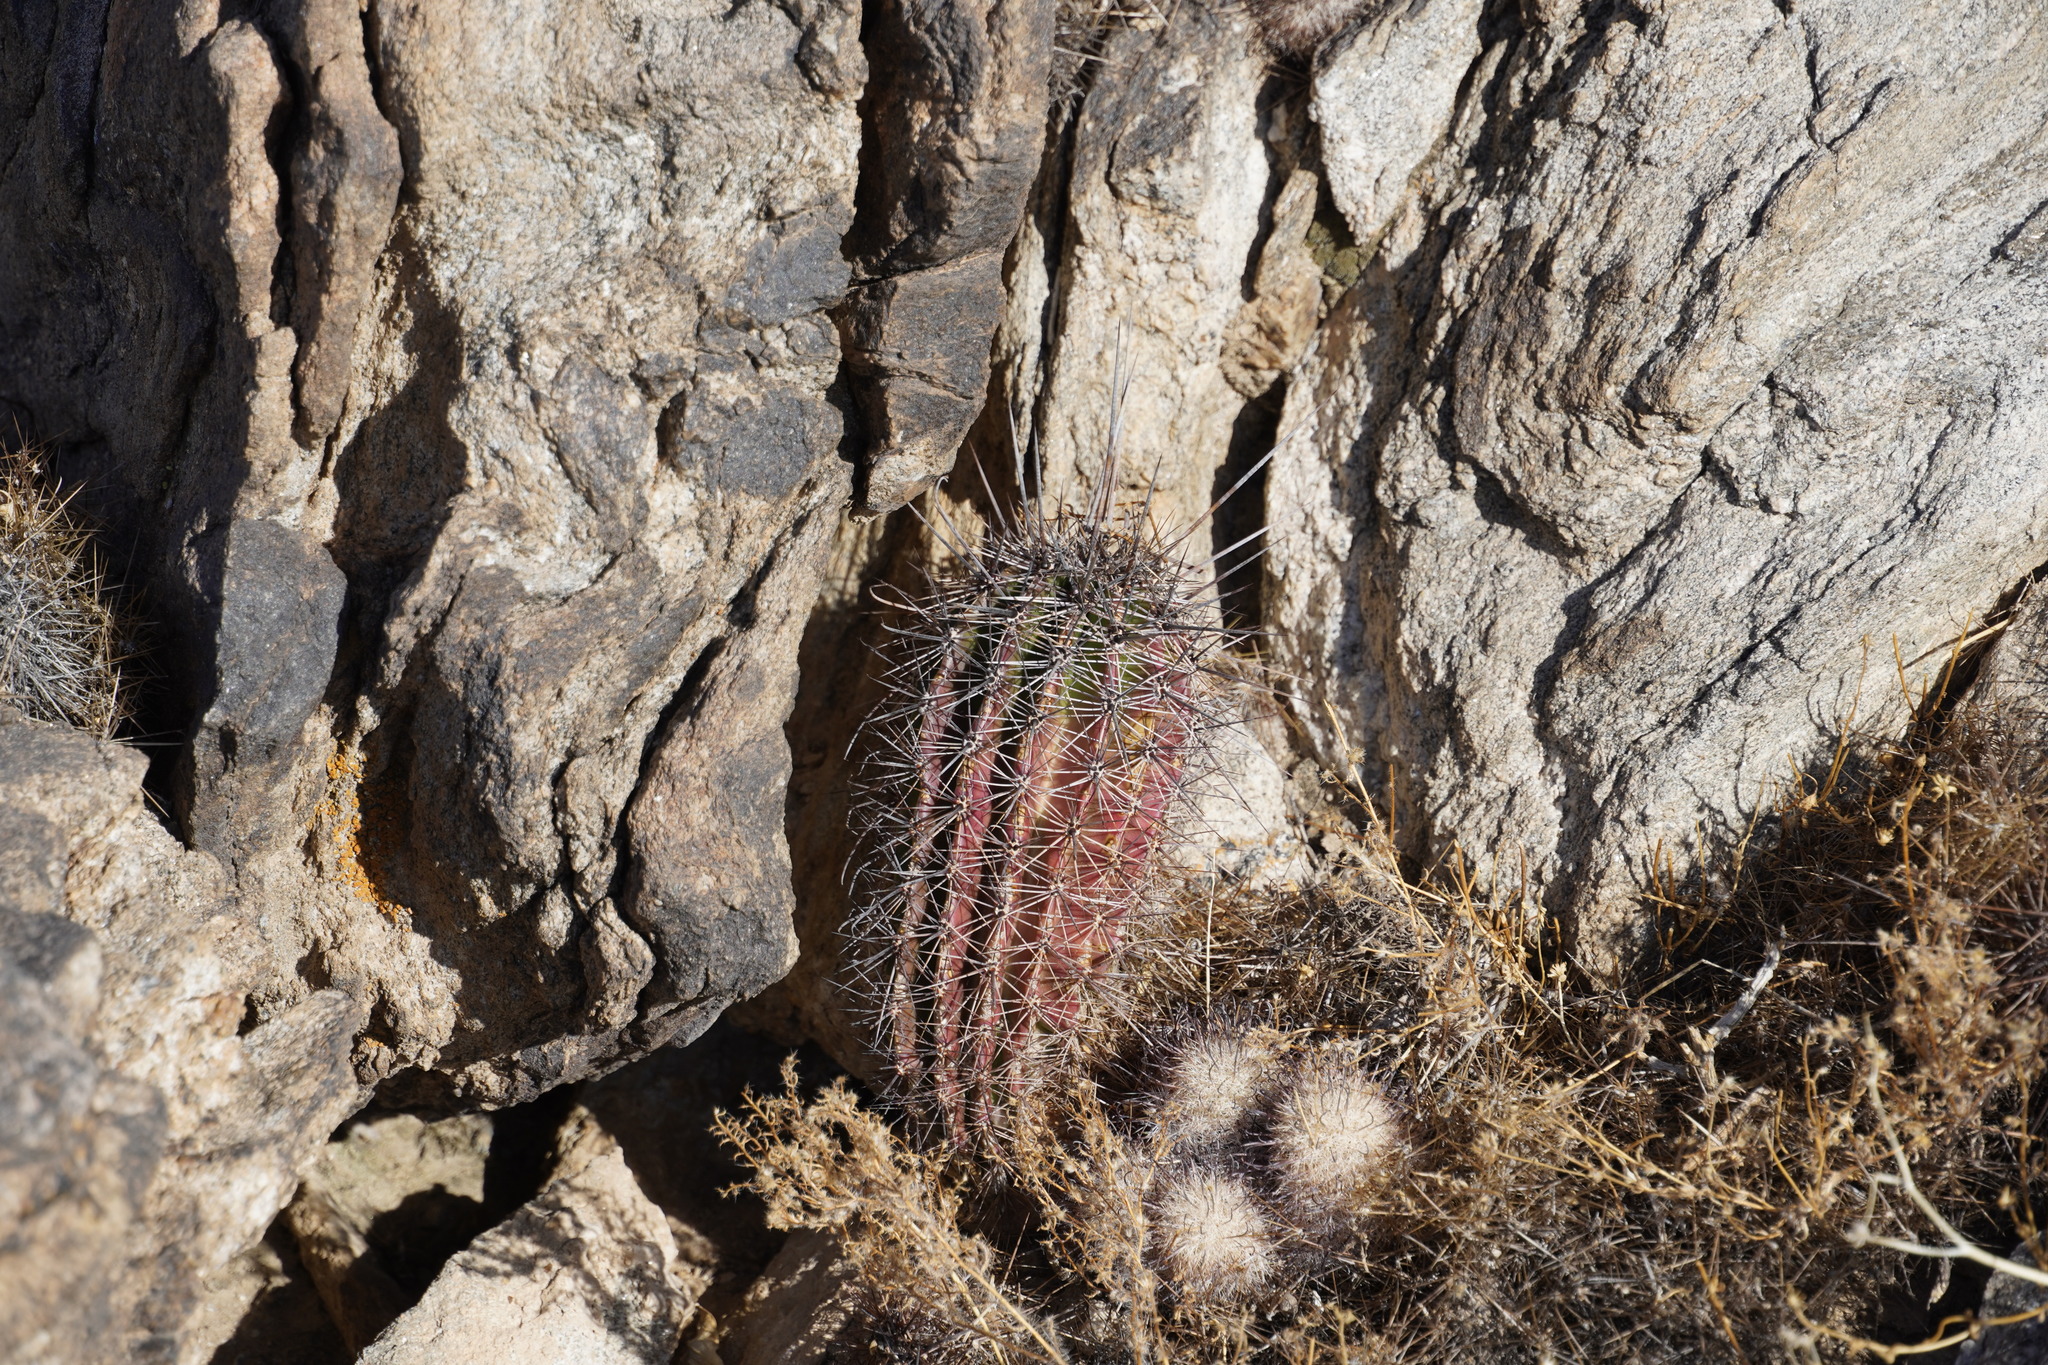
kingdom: Plantae
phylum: Tracheophyta
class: Magnoliopsida
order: Caryophyllales
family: Cactaceae
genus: Carnegiea
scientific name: Carnegiea gigantea
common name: Saguaro
